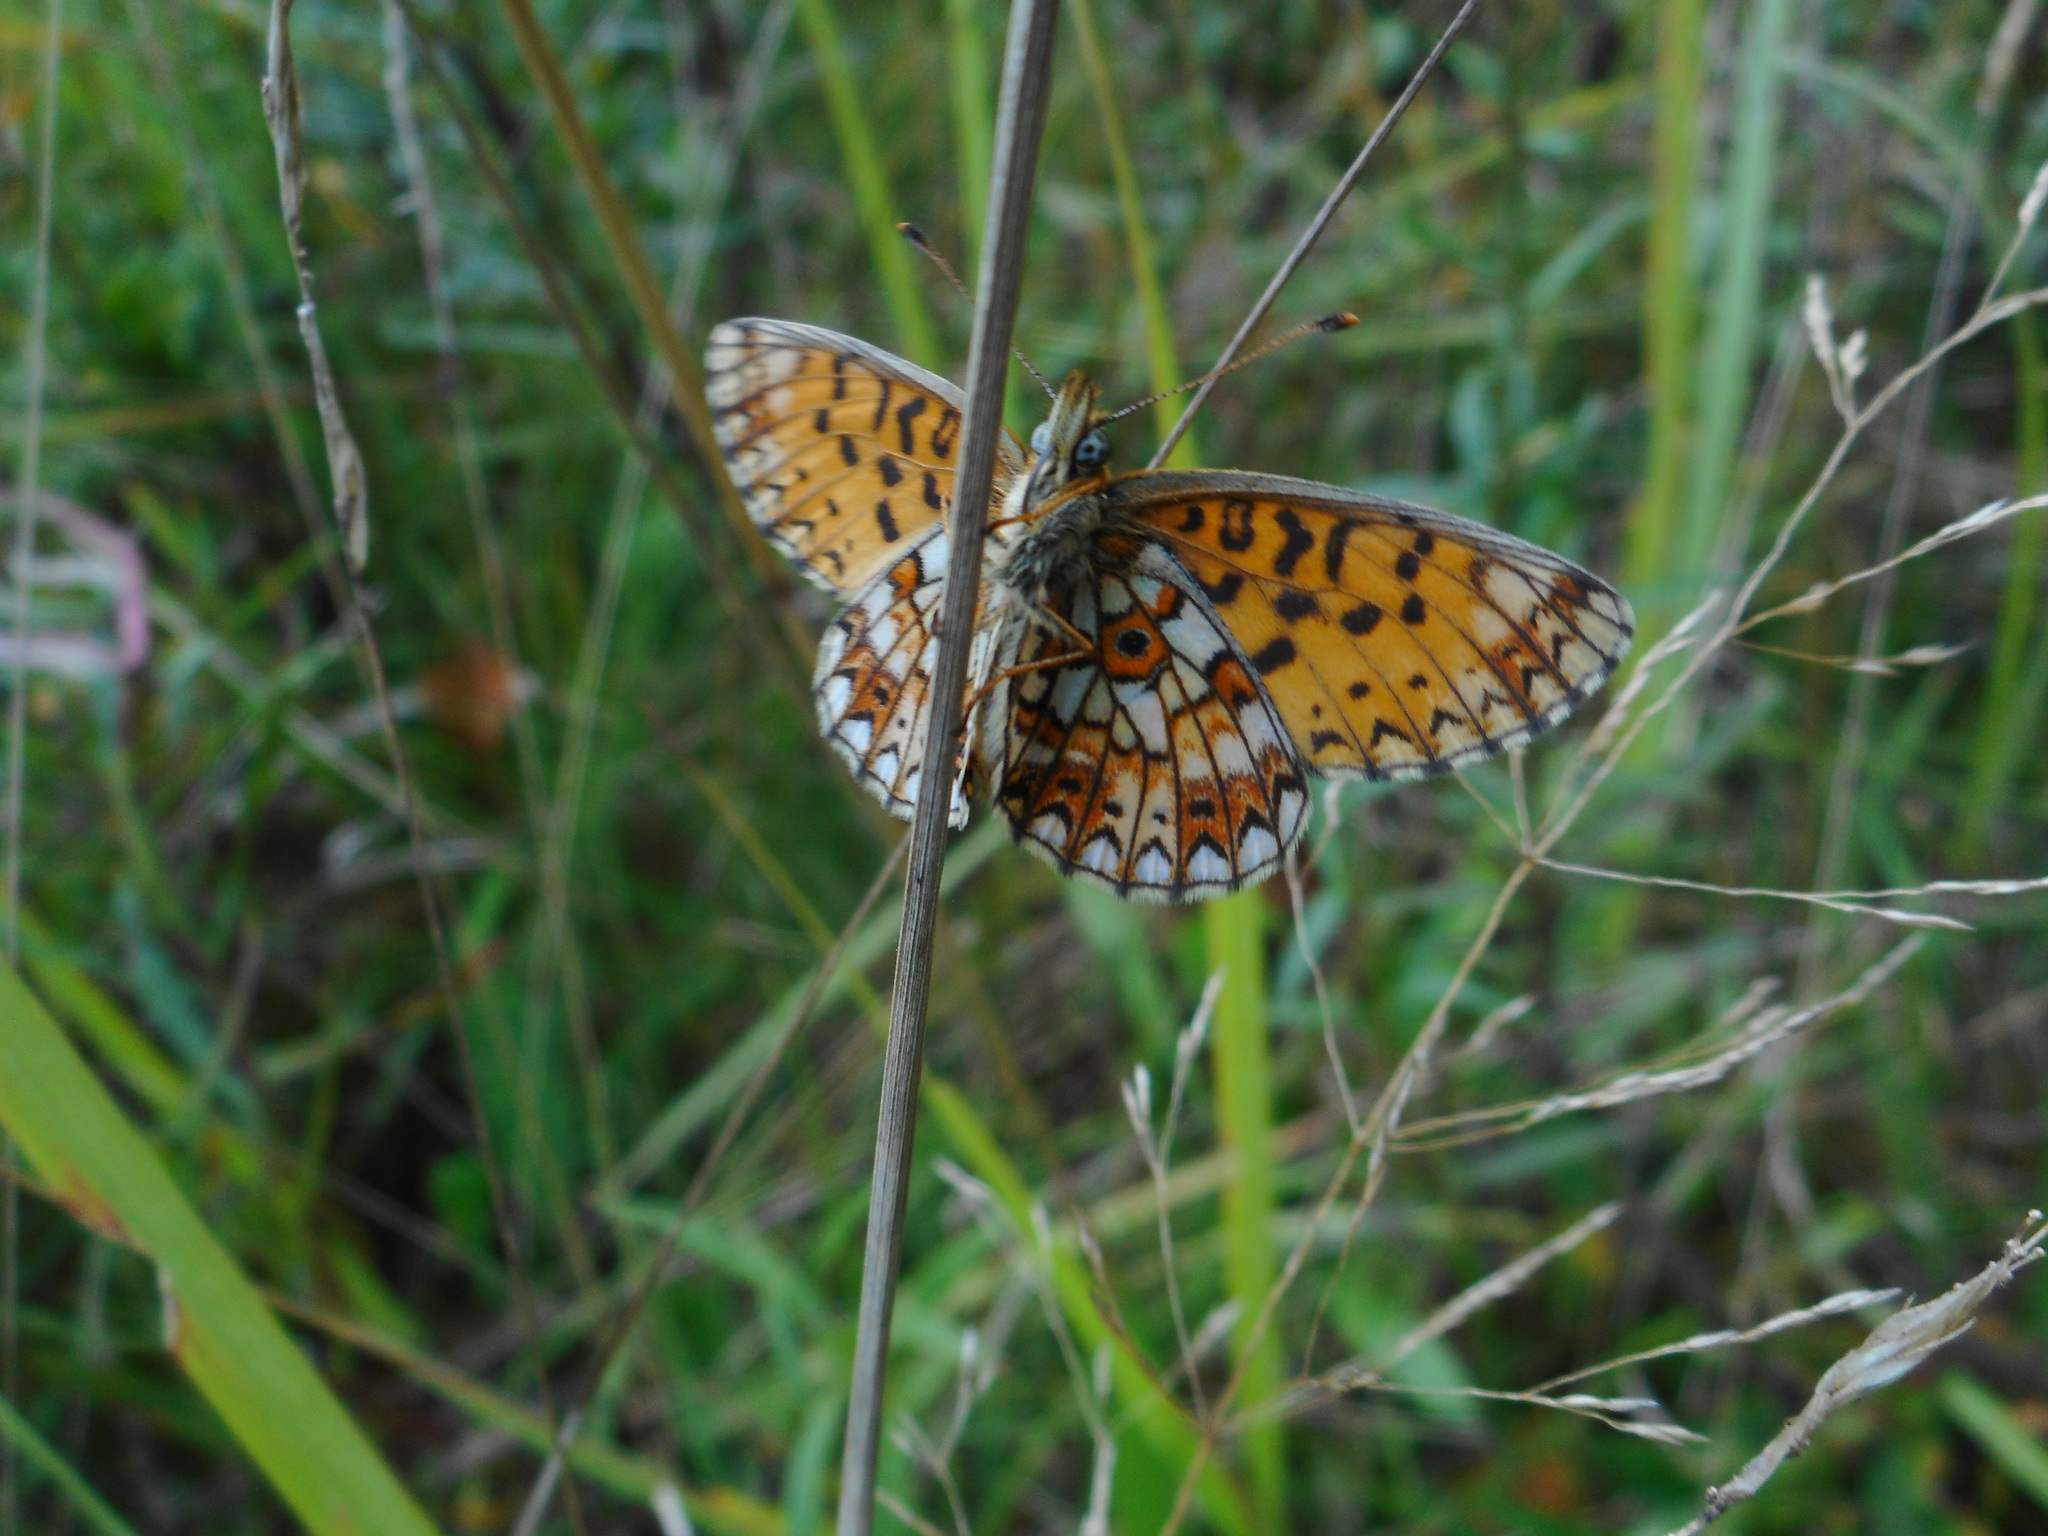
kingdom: Animalia
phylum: Arthropoda
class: Insecta
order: Lepidoptera
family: Nymphalidae
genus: Boloria
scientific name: Boloria selene
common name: Small pearl-bordered fritillary
